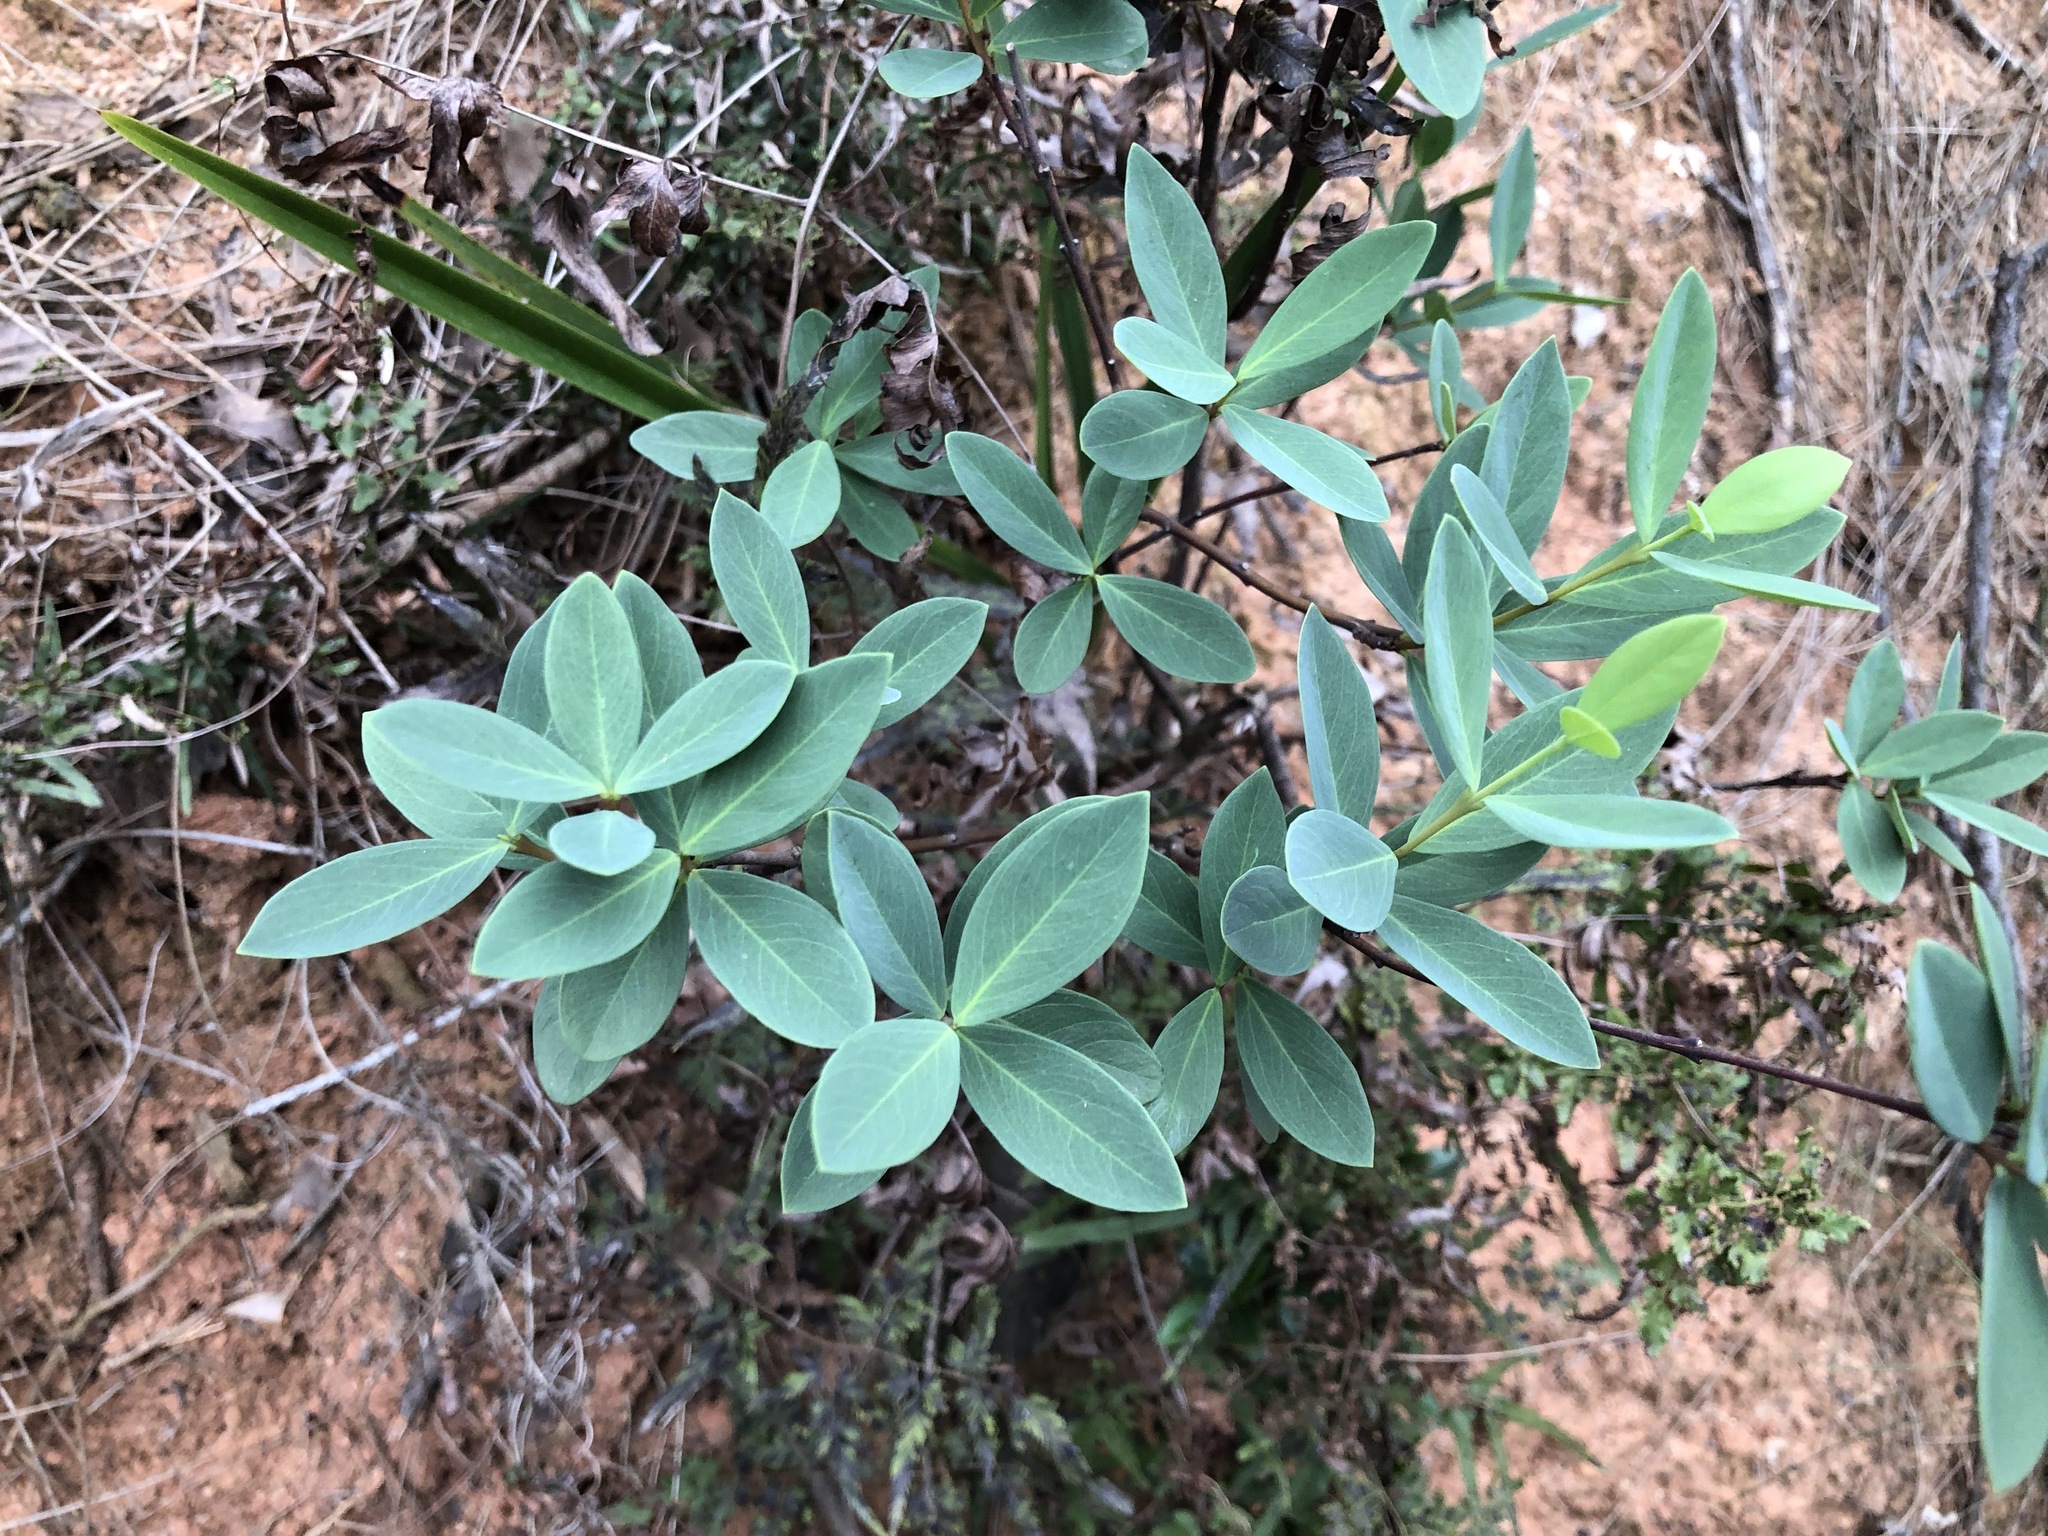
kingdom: Plantae
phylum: Tracheophyta
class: Magnoliopsida
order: Malvales
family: Thymelaeaceae
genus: Wikstroemia
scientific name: Wikstroemia indica
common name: Tiebush
